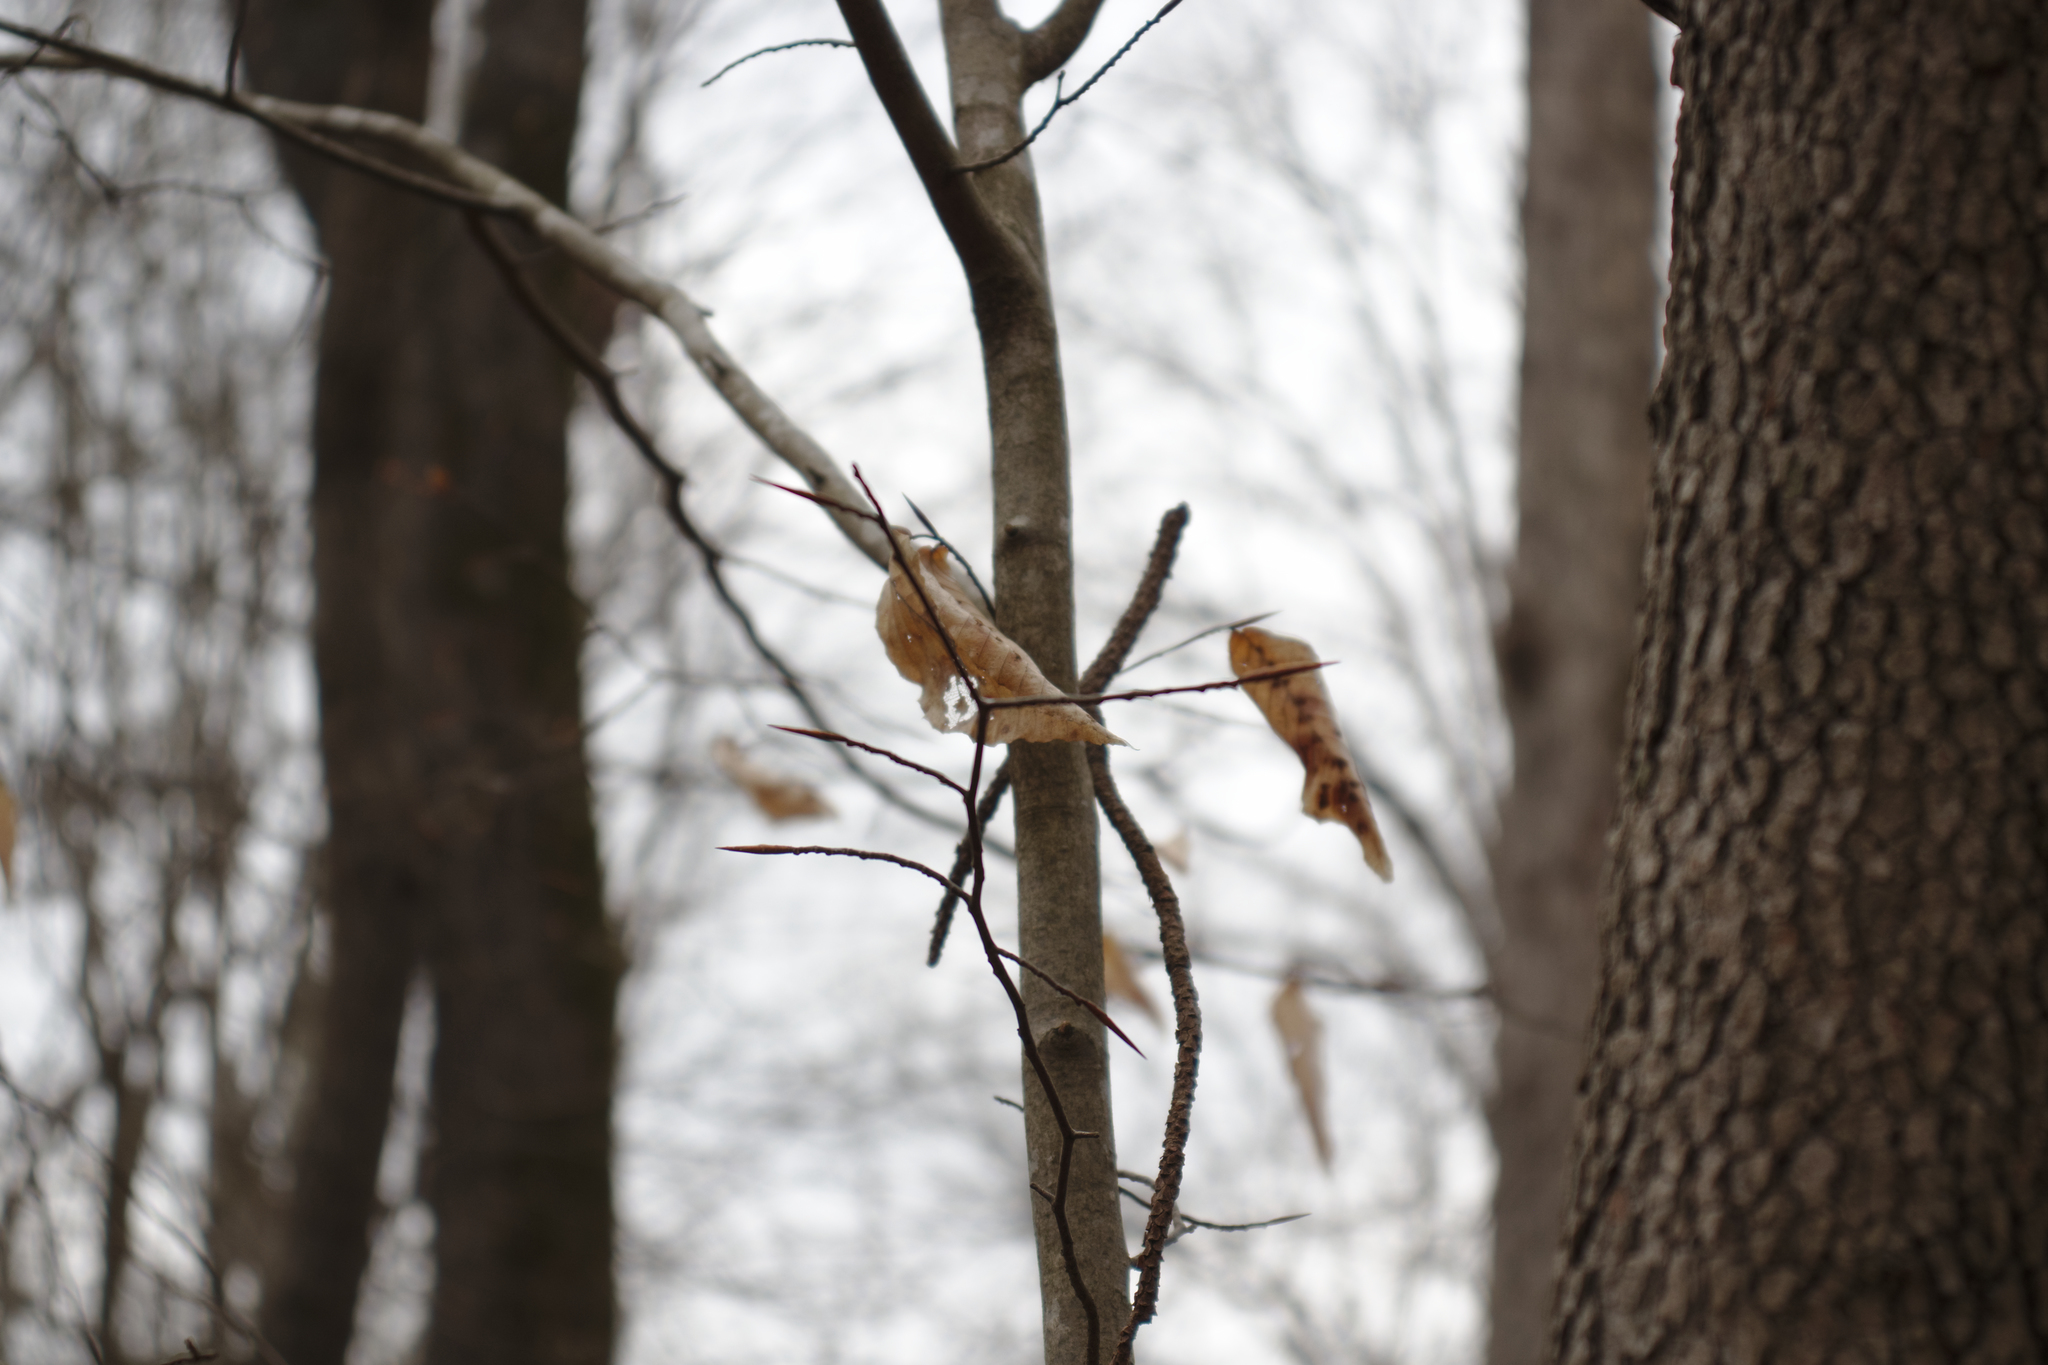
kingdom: Plantae
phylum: Tracheophyta
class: Magnoliopsida
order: Fagales
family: Fagaceae
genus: Fagus
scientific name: Fagus grandifolia
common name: American beech
